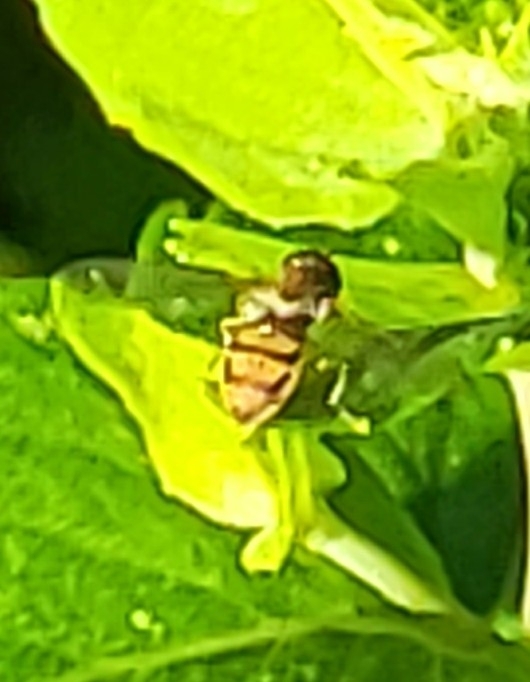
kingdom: Animalia
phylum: Arthropoda
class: Insecta
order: Diptera
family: Syrphidae
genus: Toxomerus
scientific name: Toxomerus marginatus
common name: Syrphid fly
